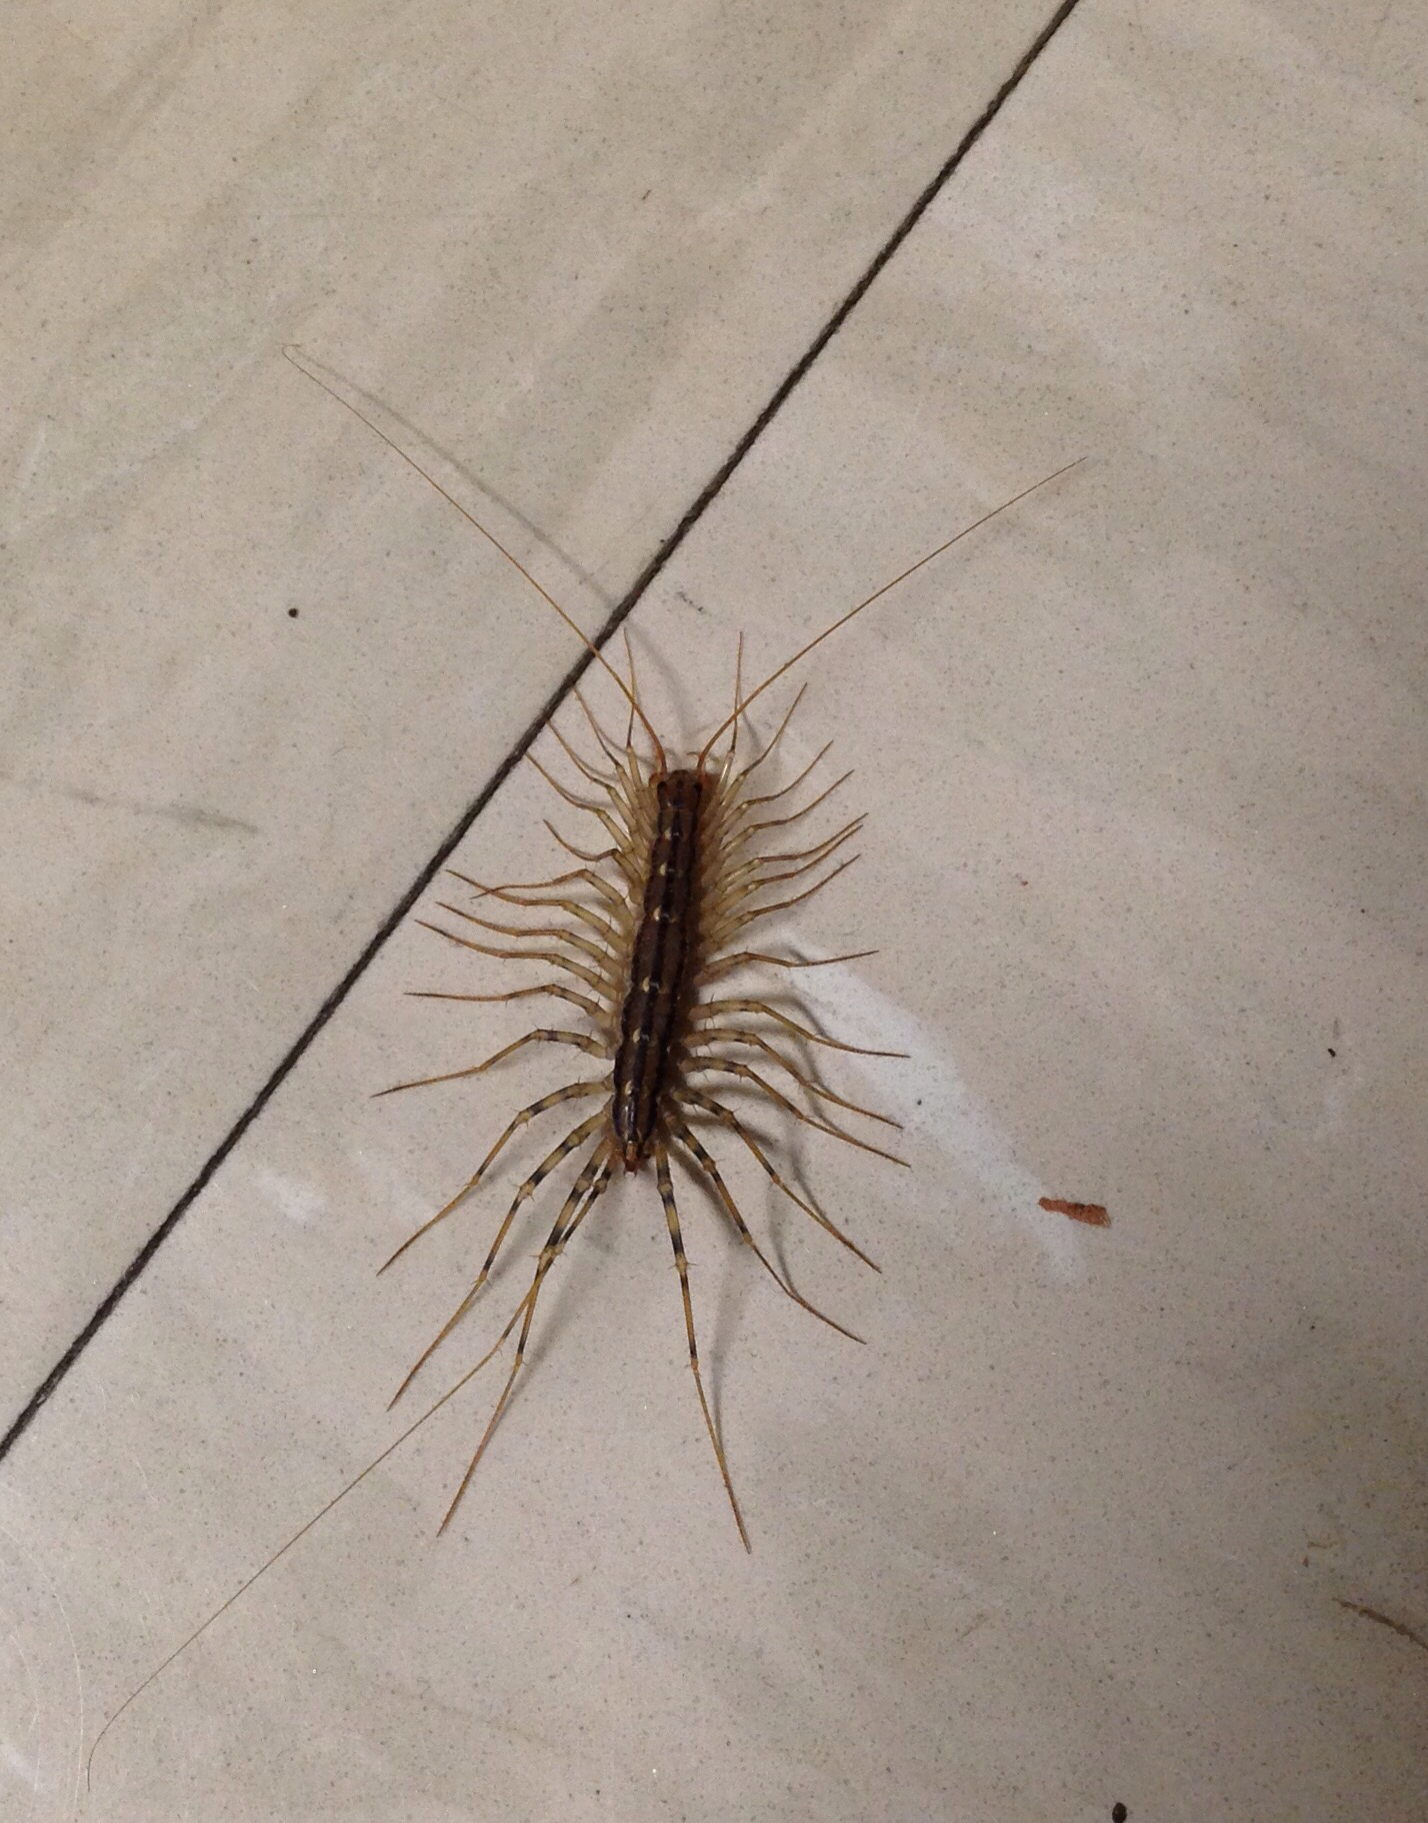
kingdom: Animalia
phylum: Arthropoda
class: Chilopoda
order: Scutigeromorpha
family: Scutigeridae
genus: Scutigera
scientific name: Scutigera coleoptrata
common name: House centipede
